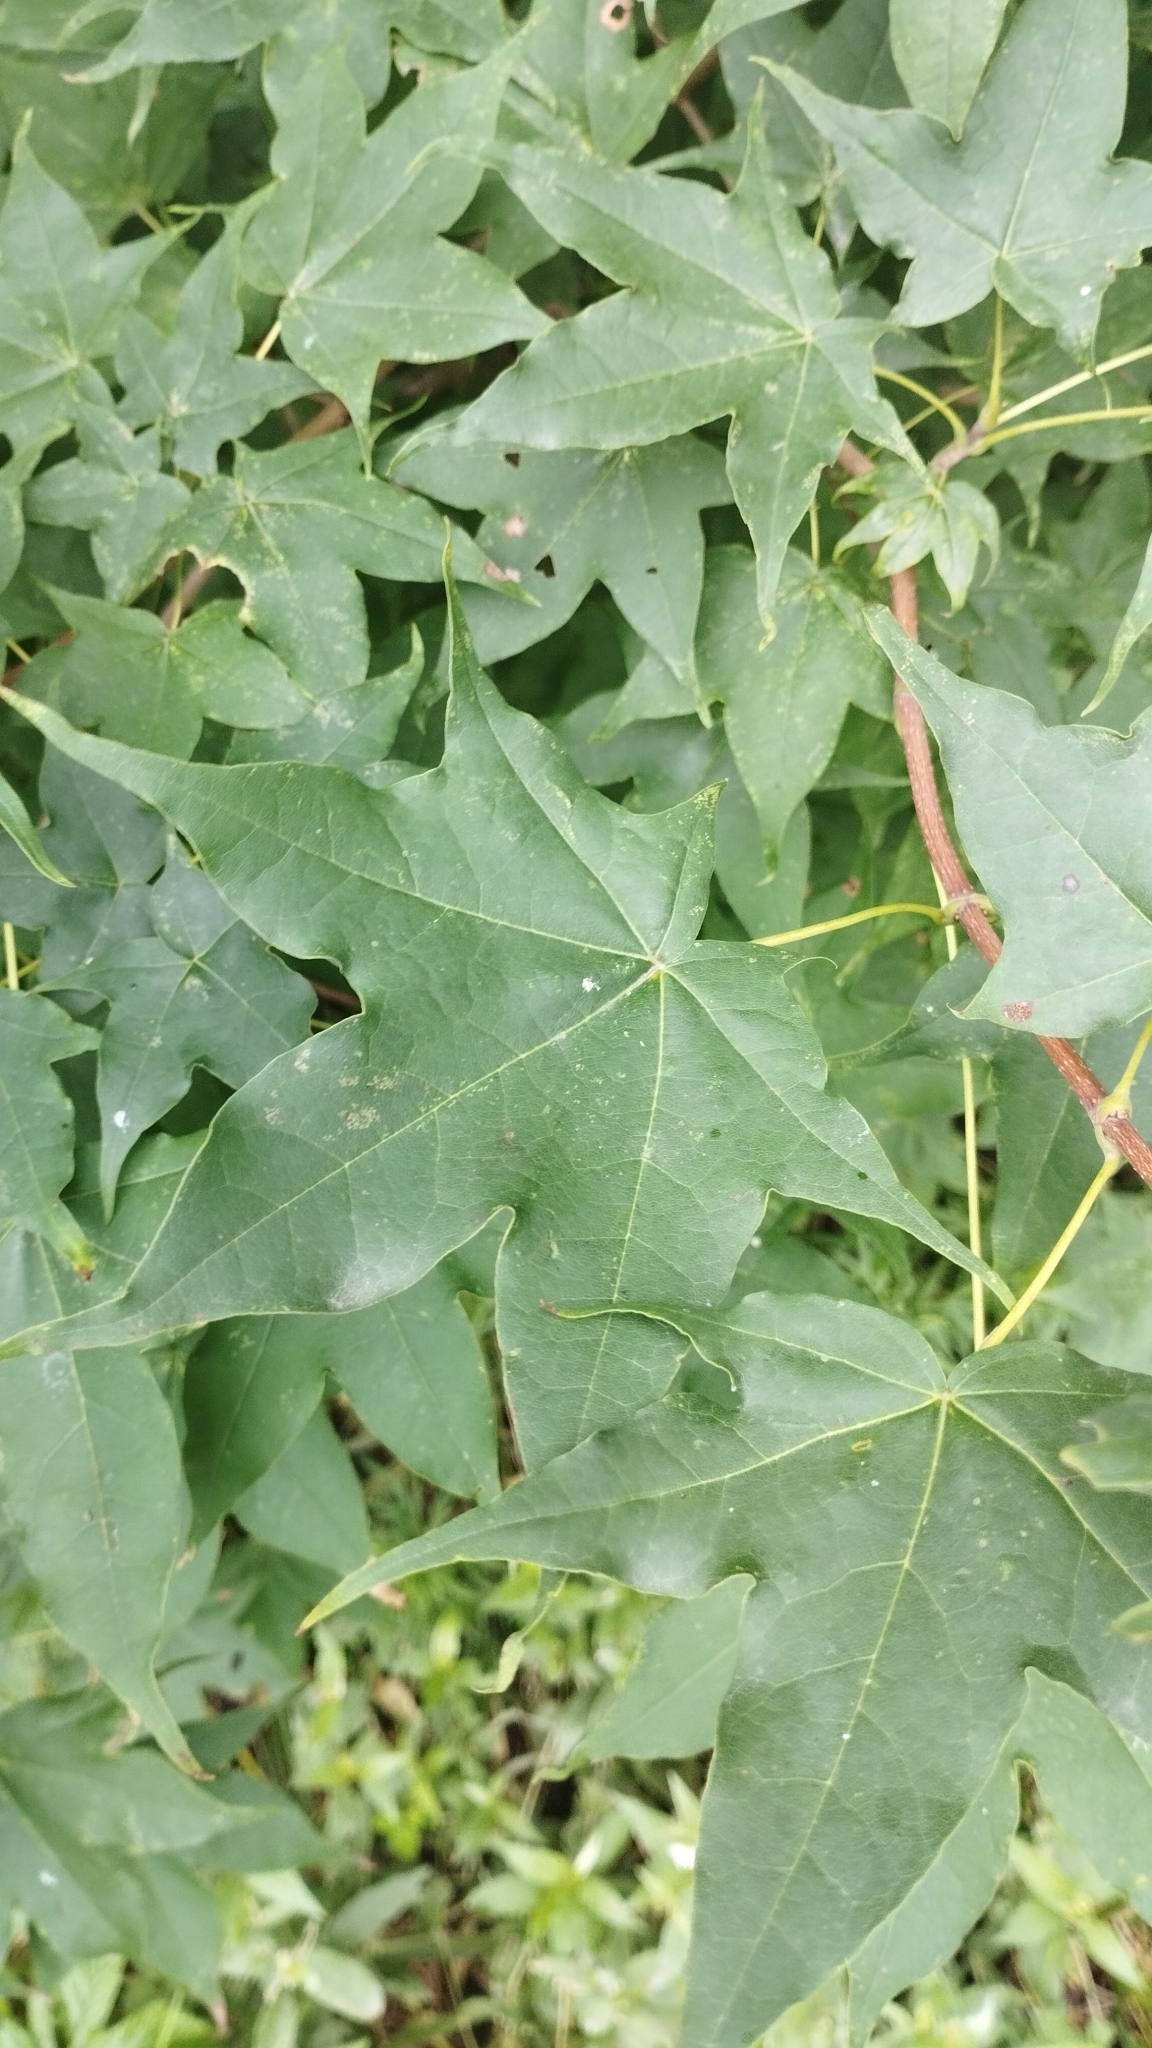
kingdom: Plantae
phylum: Tracheophyta
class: Magnoliopsida
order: Sapindales
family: Sapindaceae
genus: Acer
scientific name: Acer pictum
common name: The painted maple
